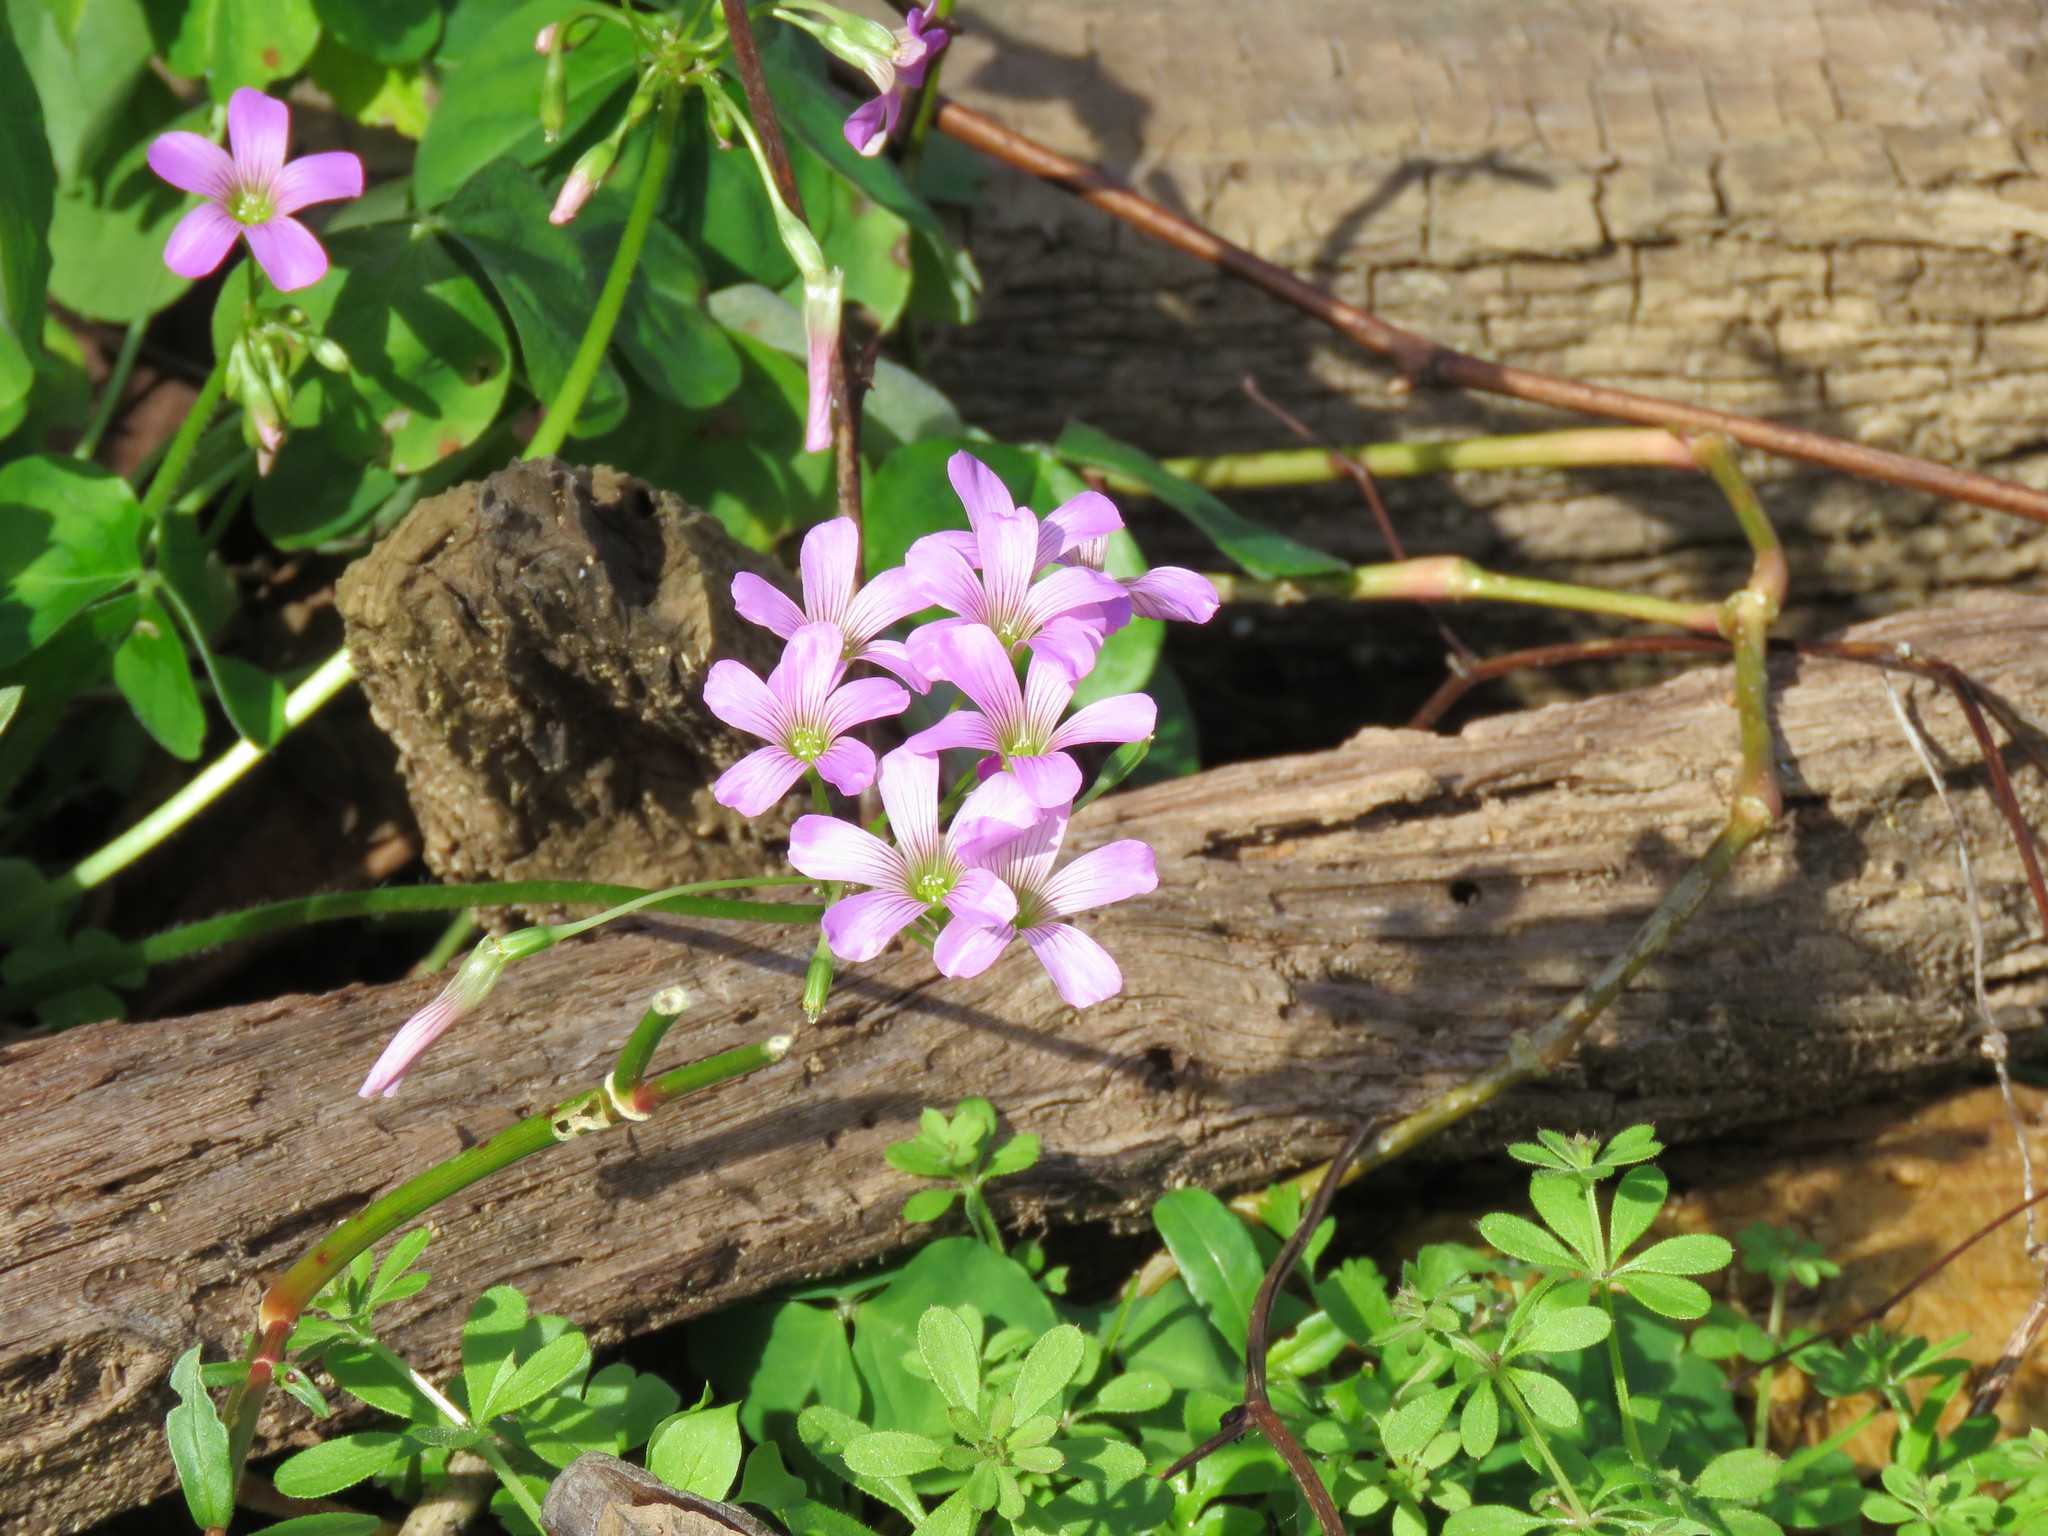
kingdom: Plantae
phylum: Tracheophyta
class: Magnoliopsida
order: Oxalidales
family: Oxalidaceae
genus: Oxalis
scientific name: Oxalis debilis
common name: Large-flowered pink-sorrel
